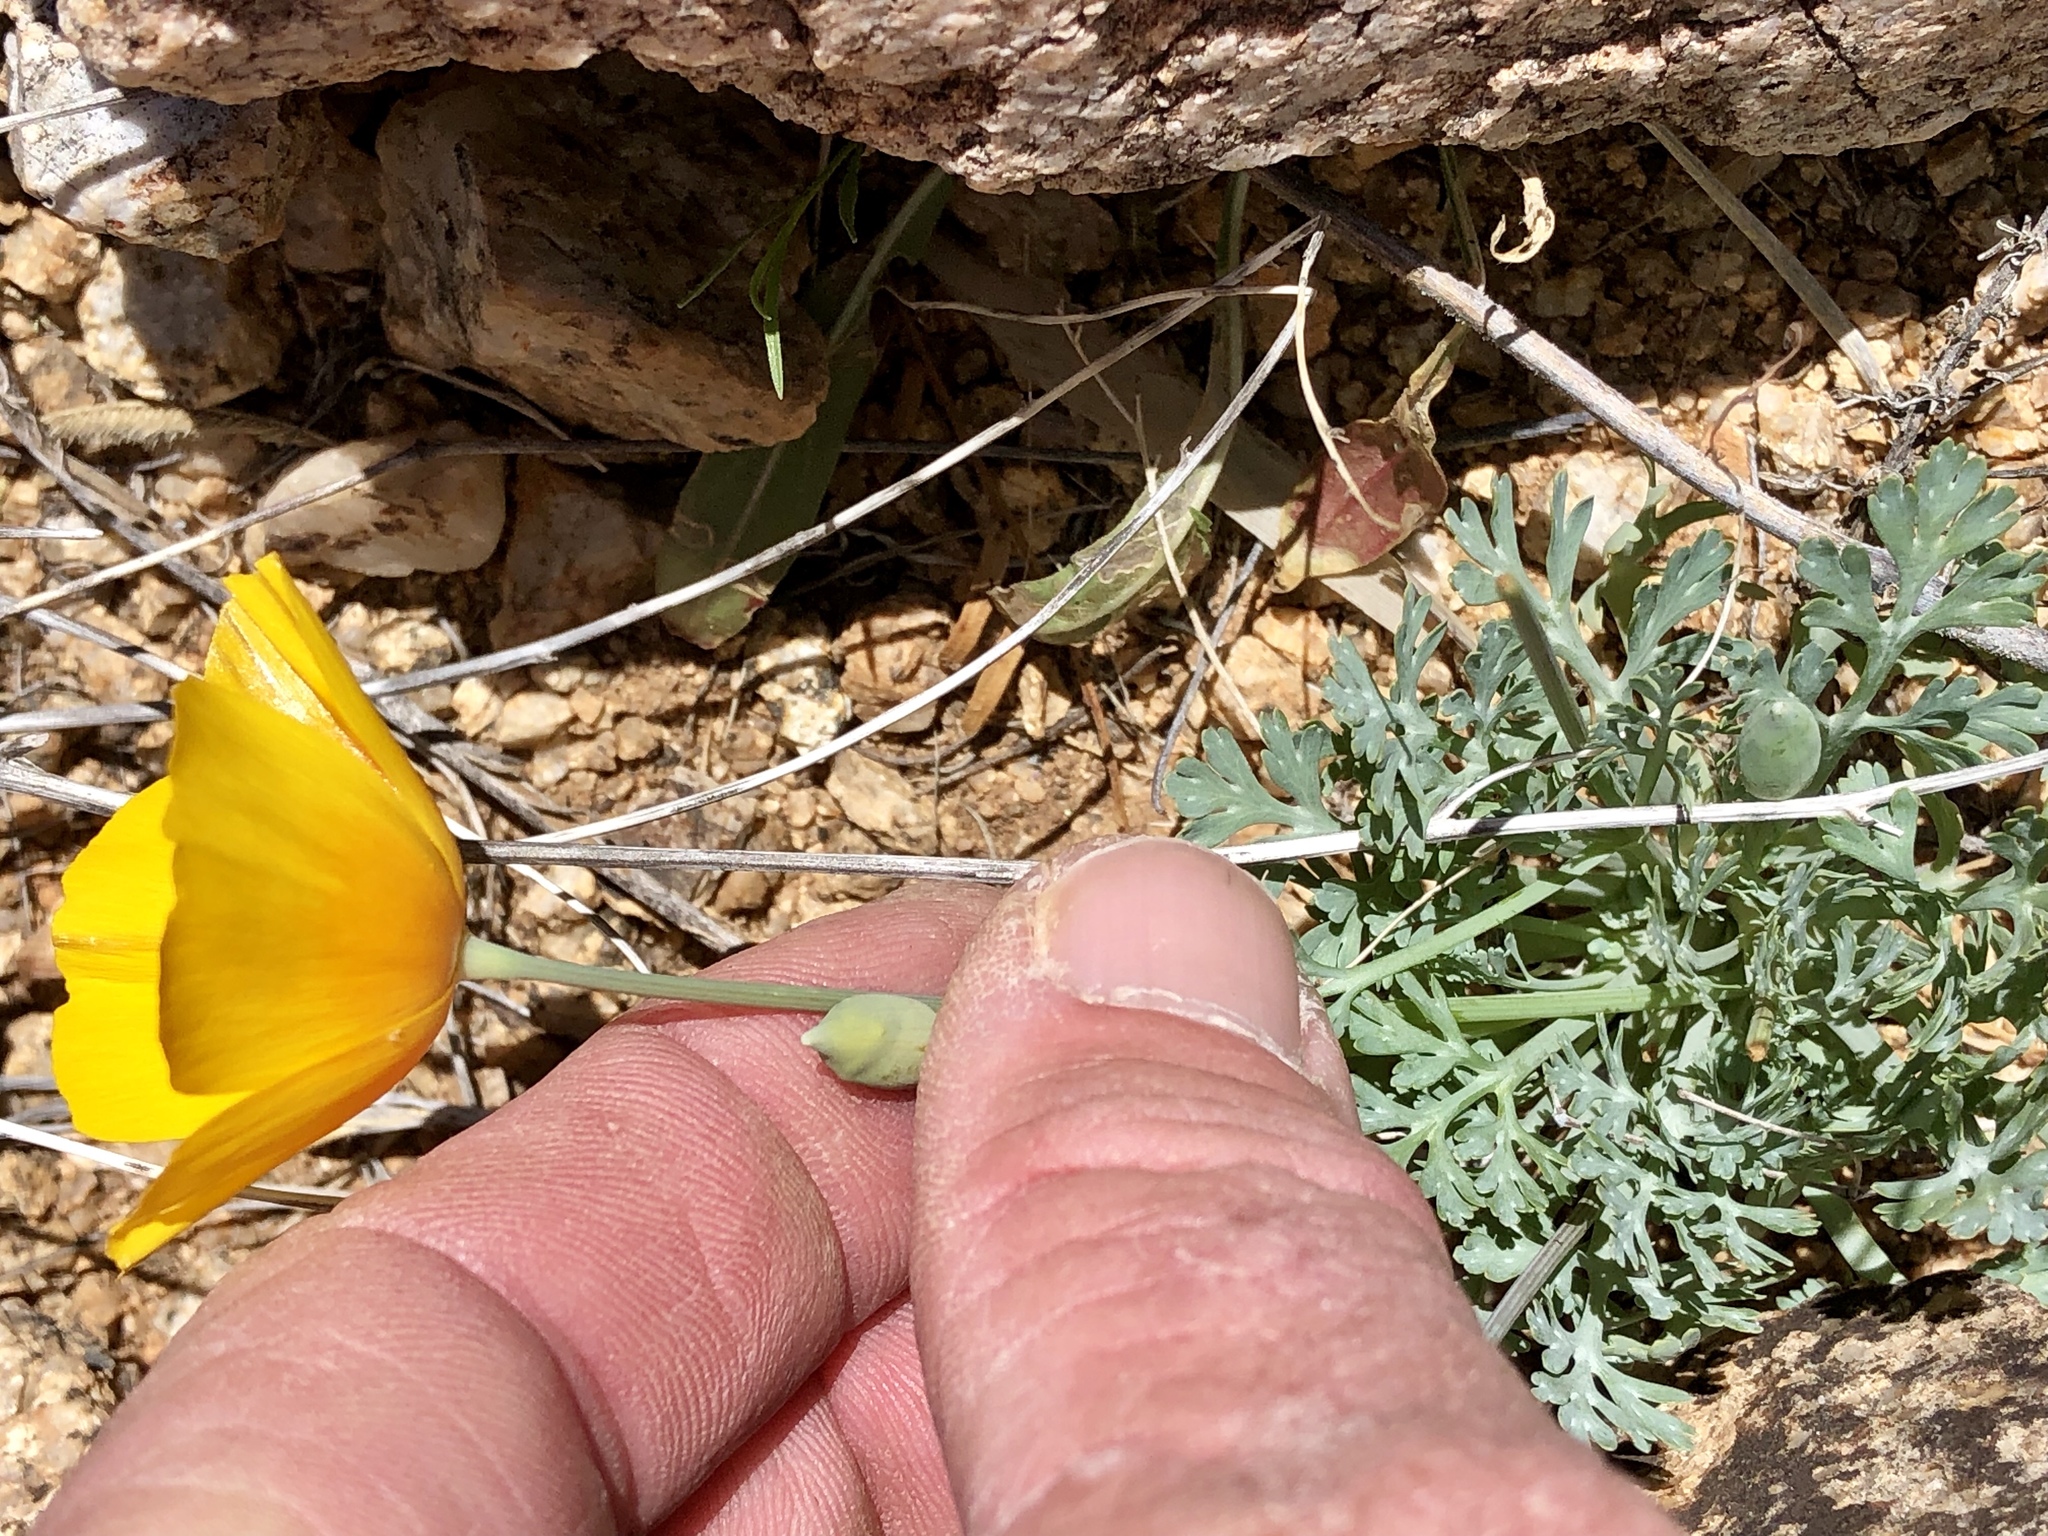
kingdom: Plantae
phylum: Tracheophyta
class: Magnoliopsida
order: Ranunculales
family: Papaveraceae
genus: Eschscholzia
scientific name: Eschscholzia californica
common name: California poppy
